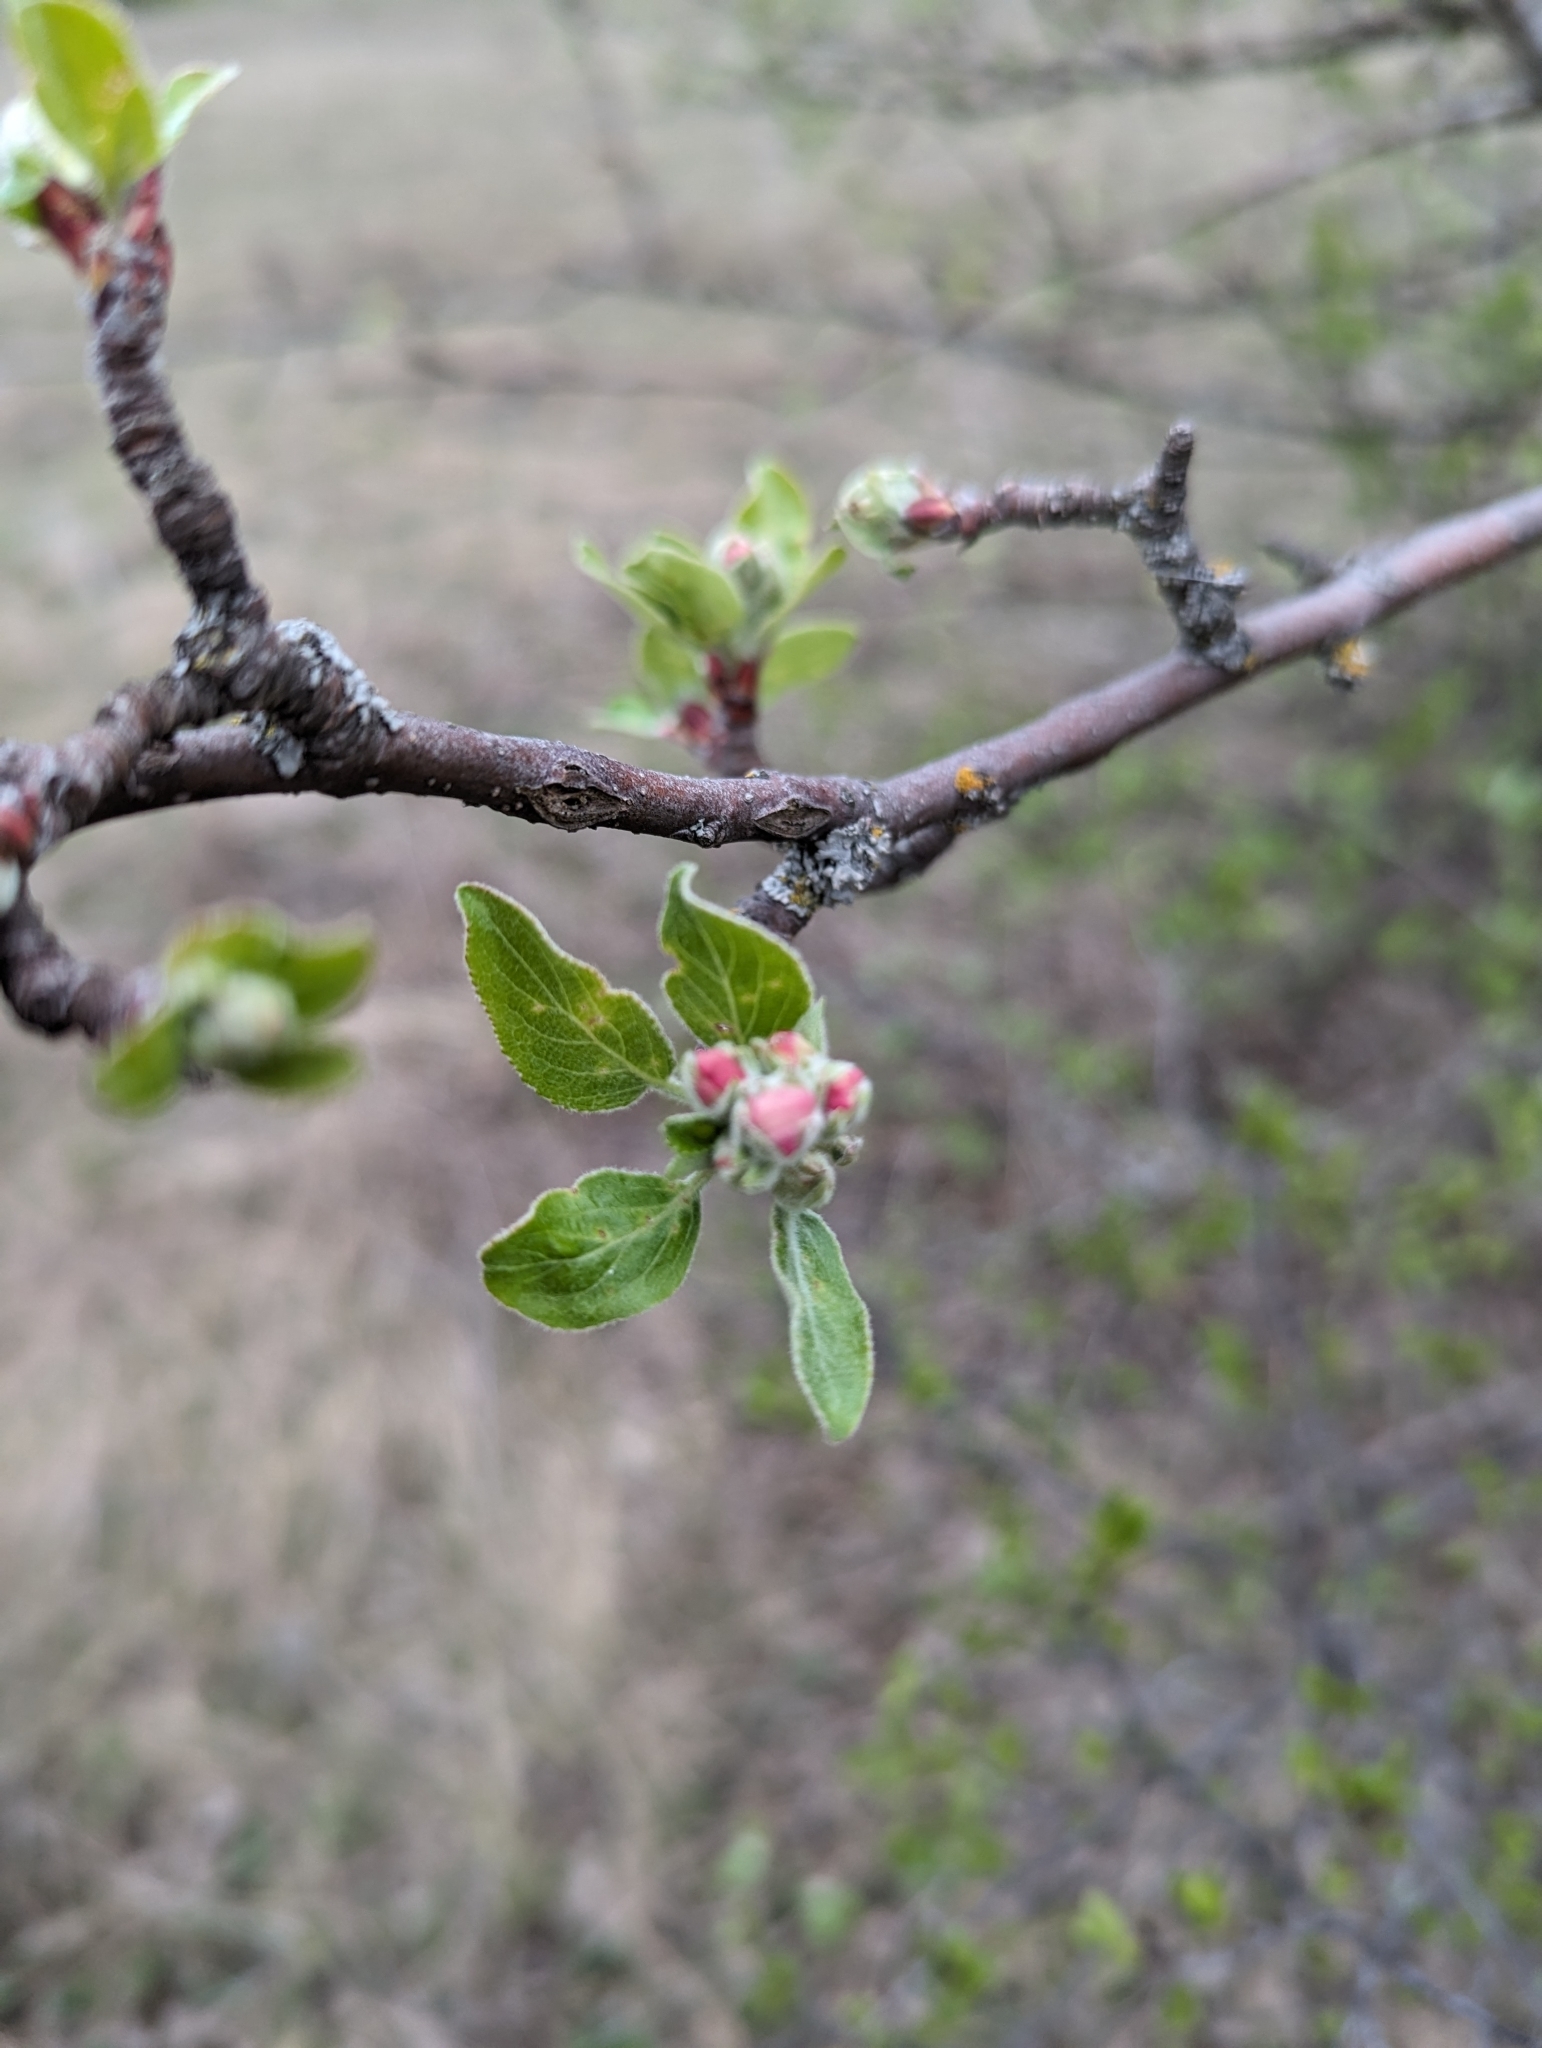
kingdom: Plantae
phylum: Tracheophyta
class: Magnoliopsida
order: Rosales
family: Rosaceae
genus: Malus
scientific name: Malus domestica
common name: Apple
